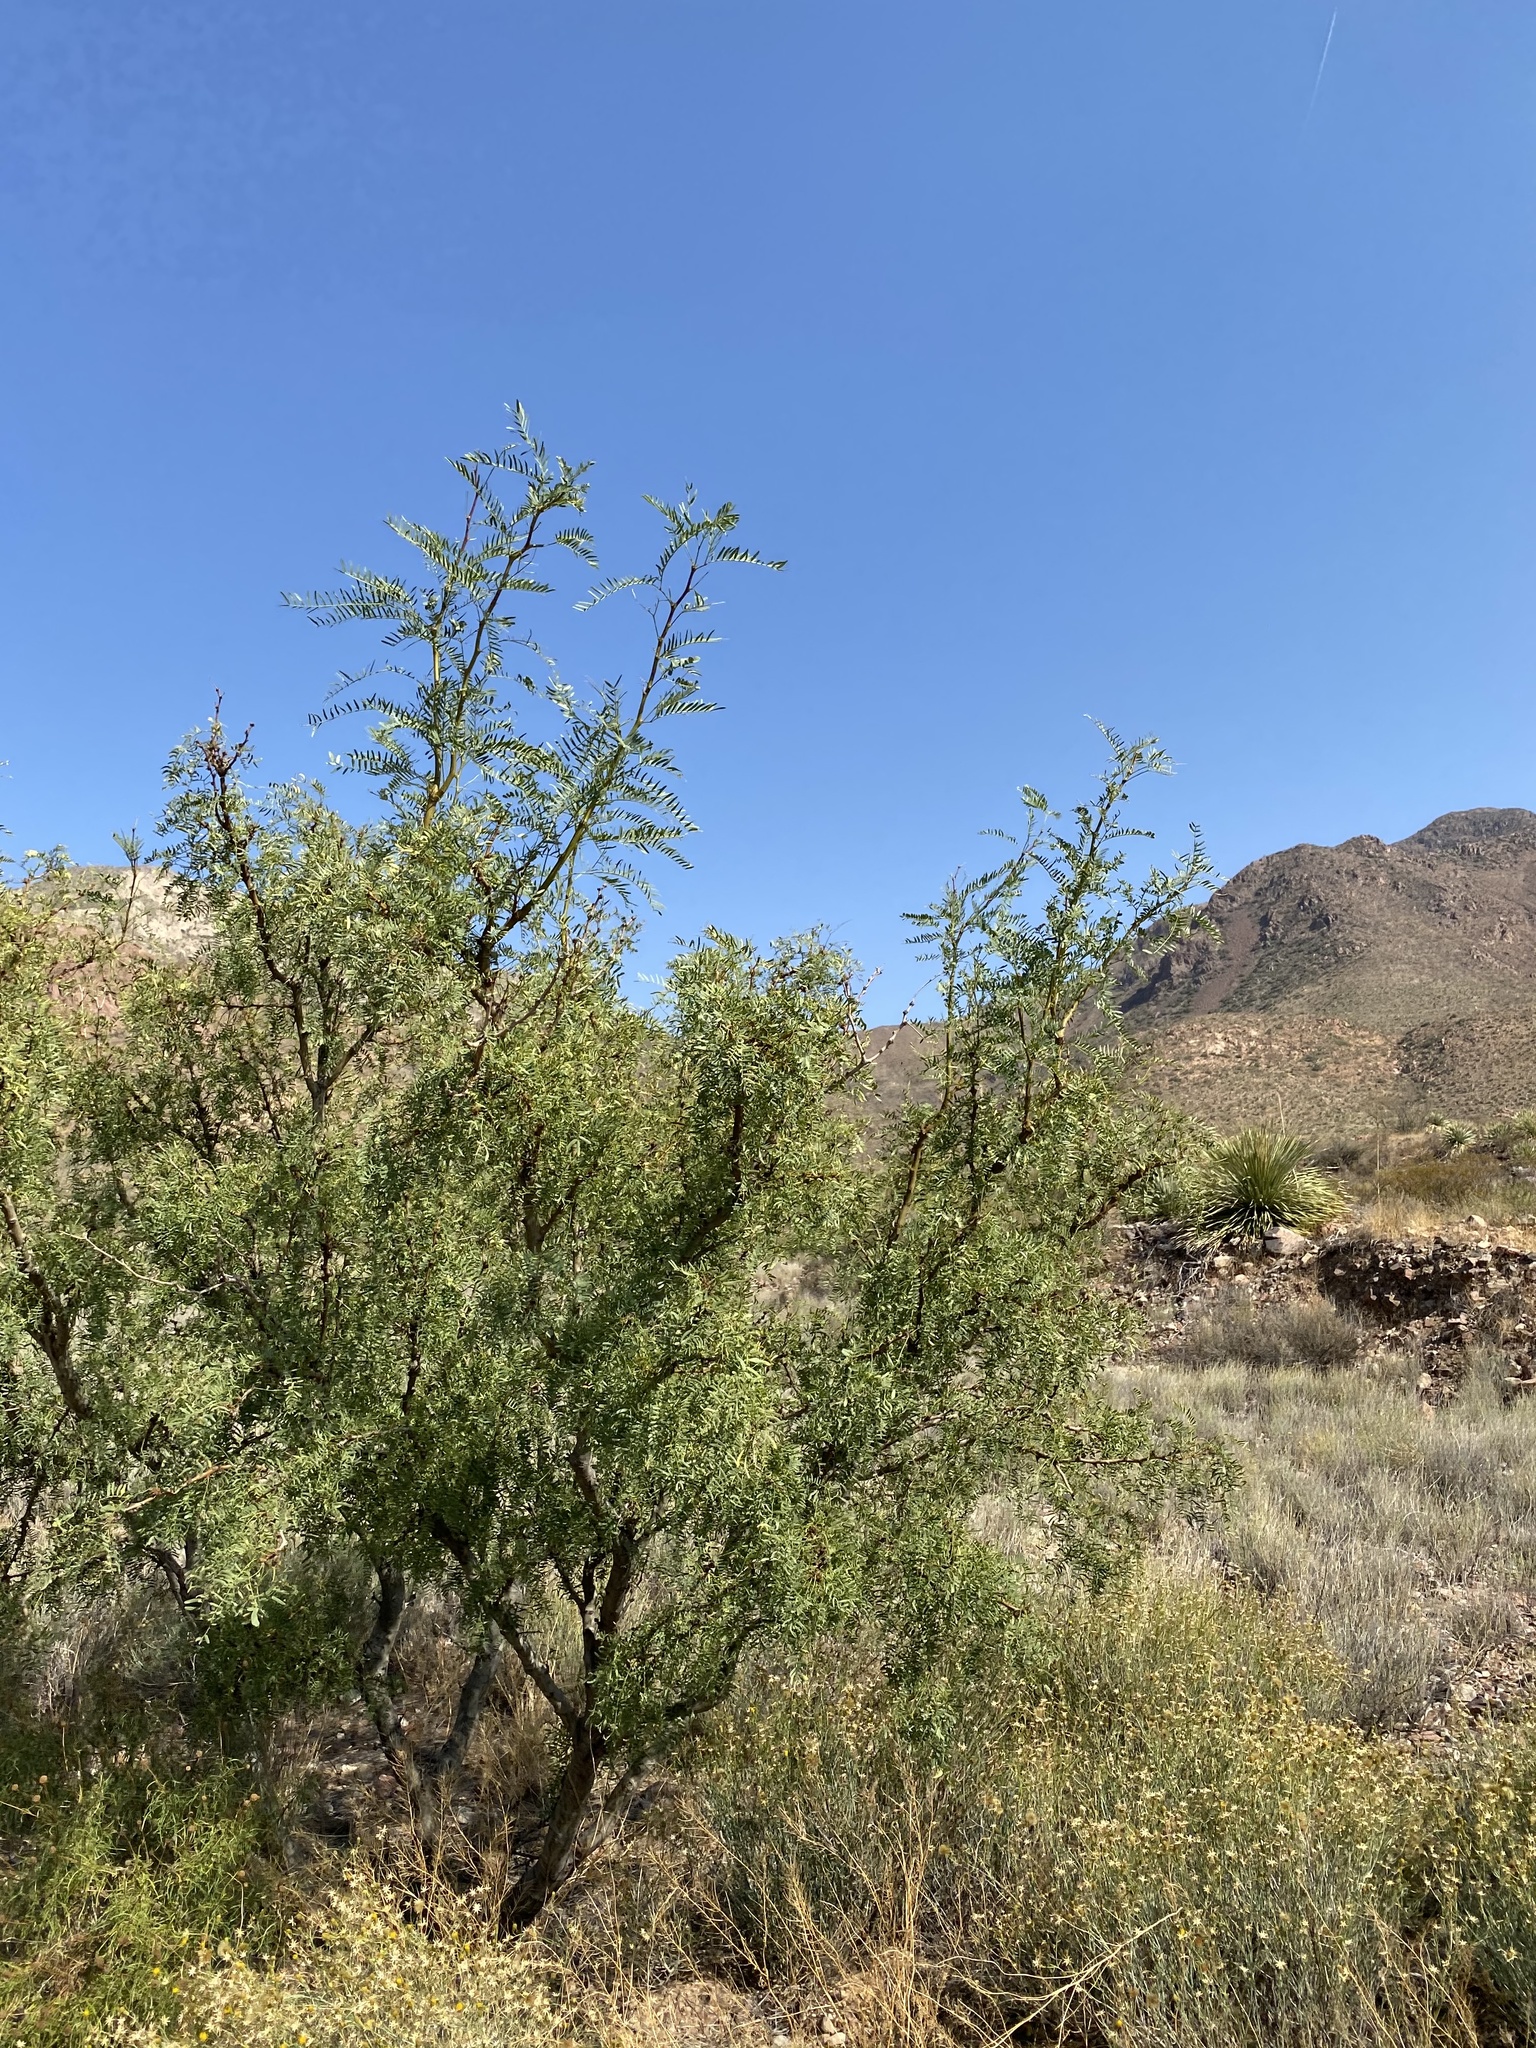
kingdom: Plantae
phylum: Tracheophyta
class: Magnoliopsida
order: Fabales
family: Fabaceae
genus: Prosopis
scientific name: Prosopis glandulosa
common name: Honey mesquite
